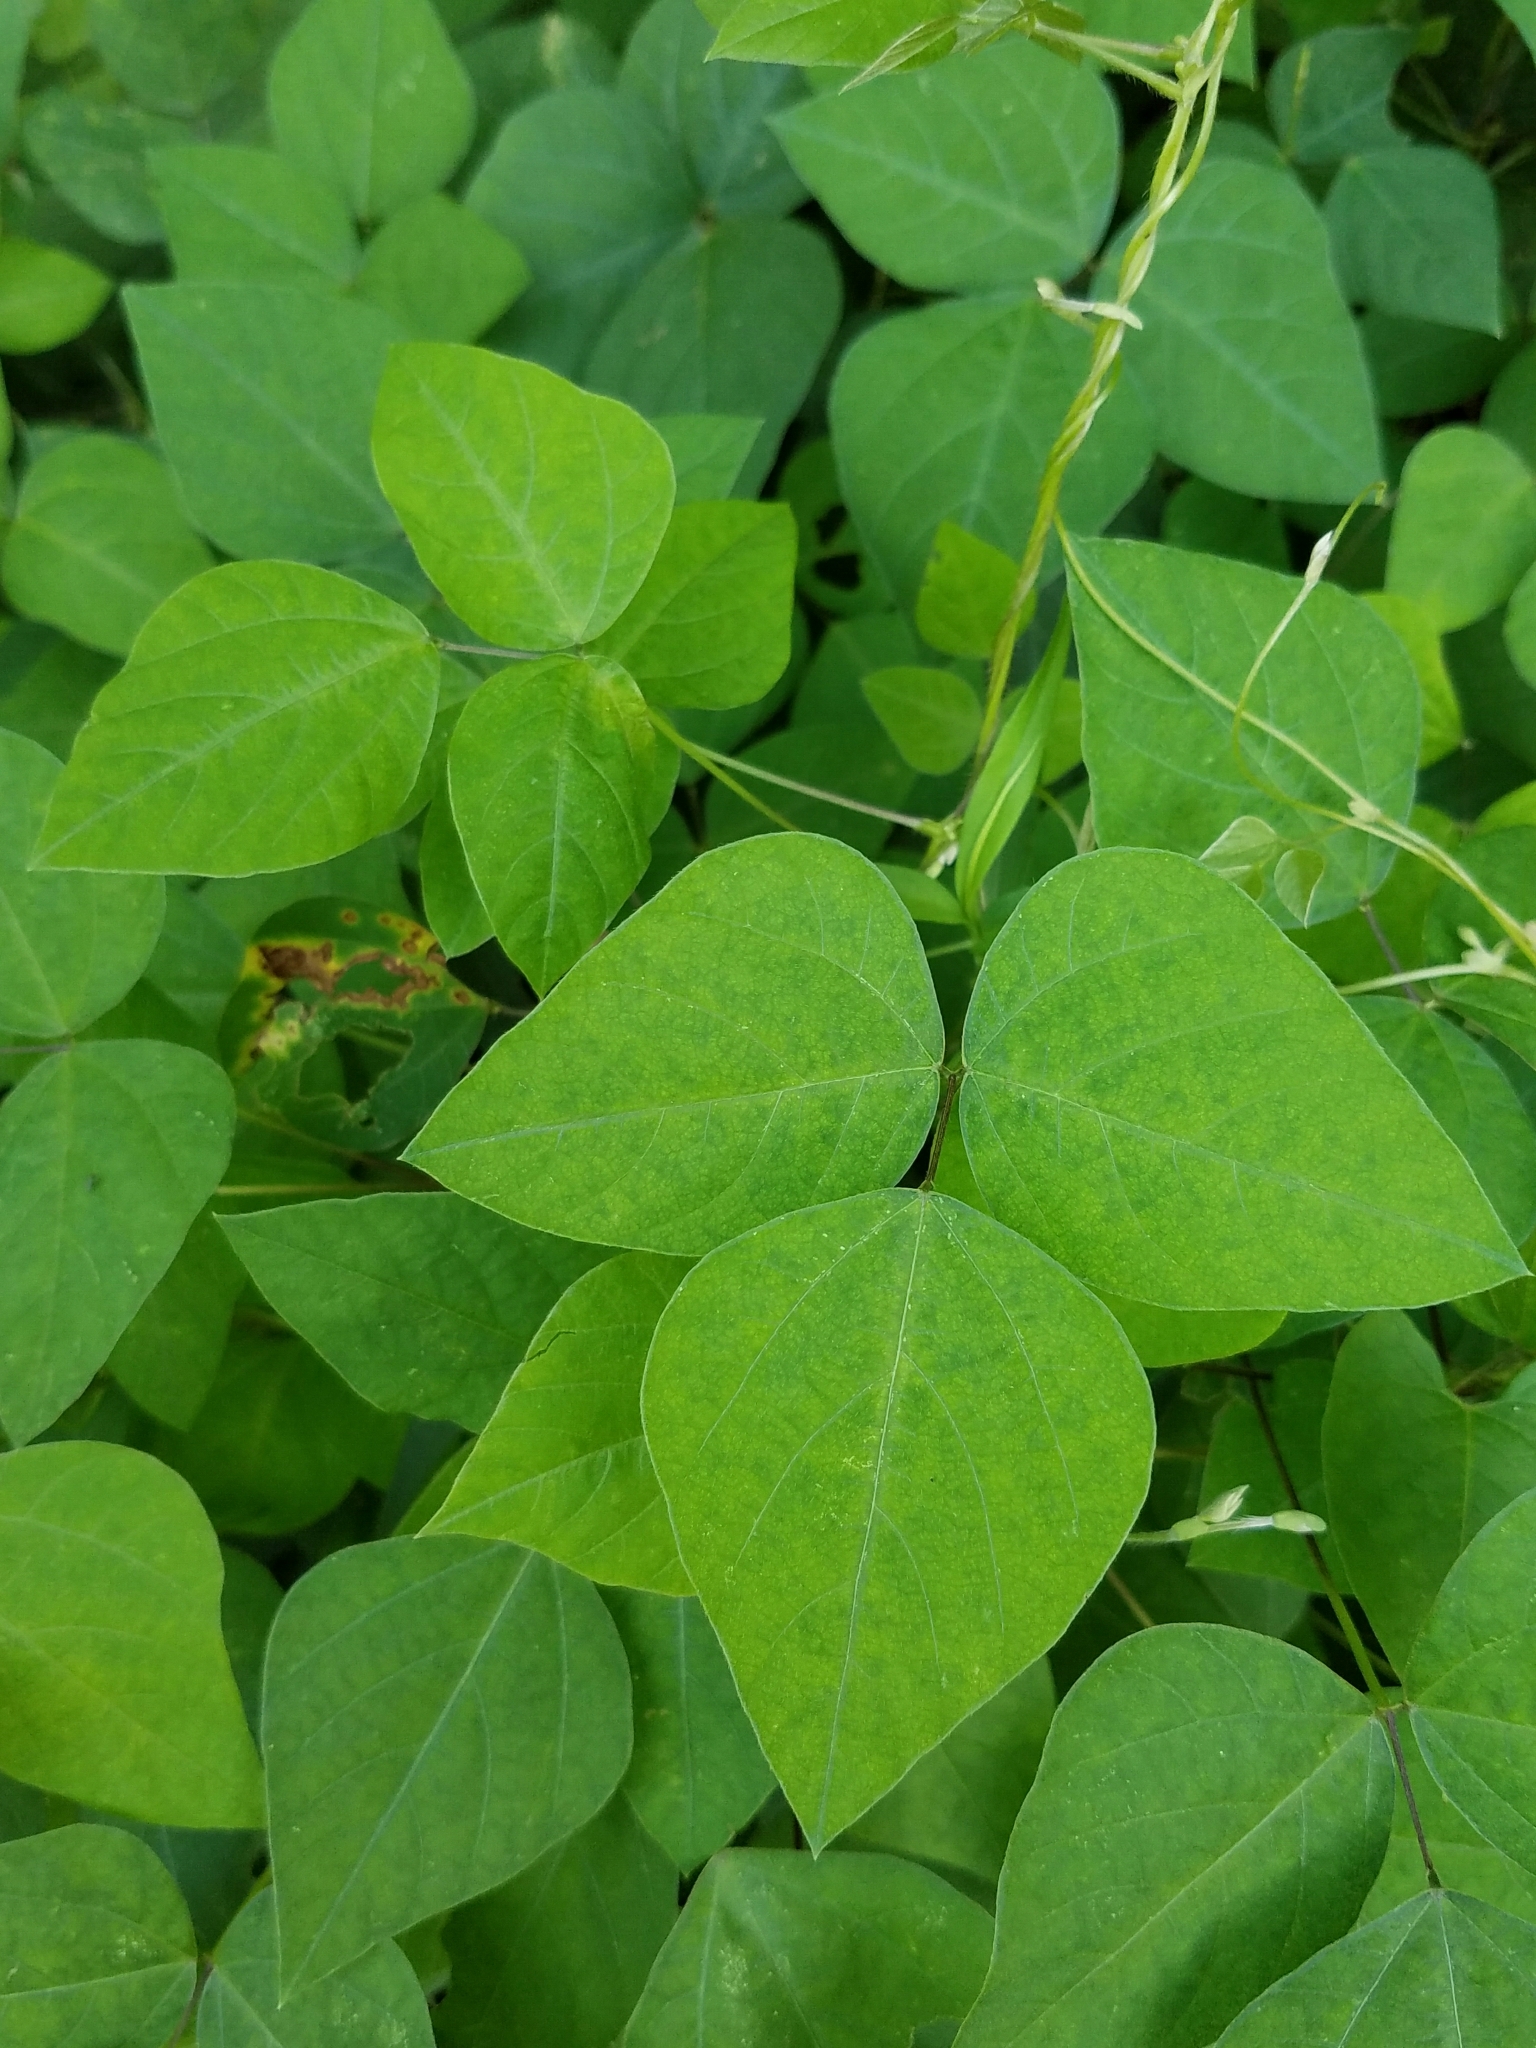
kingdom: Plantae
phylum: Tracheophyta
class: Magnoliopsida
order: Fabales
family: Fabaceae
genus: Amphicarpaea
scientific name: Amphicarpaea bracteata
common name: American hog peanut
